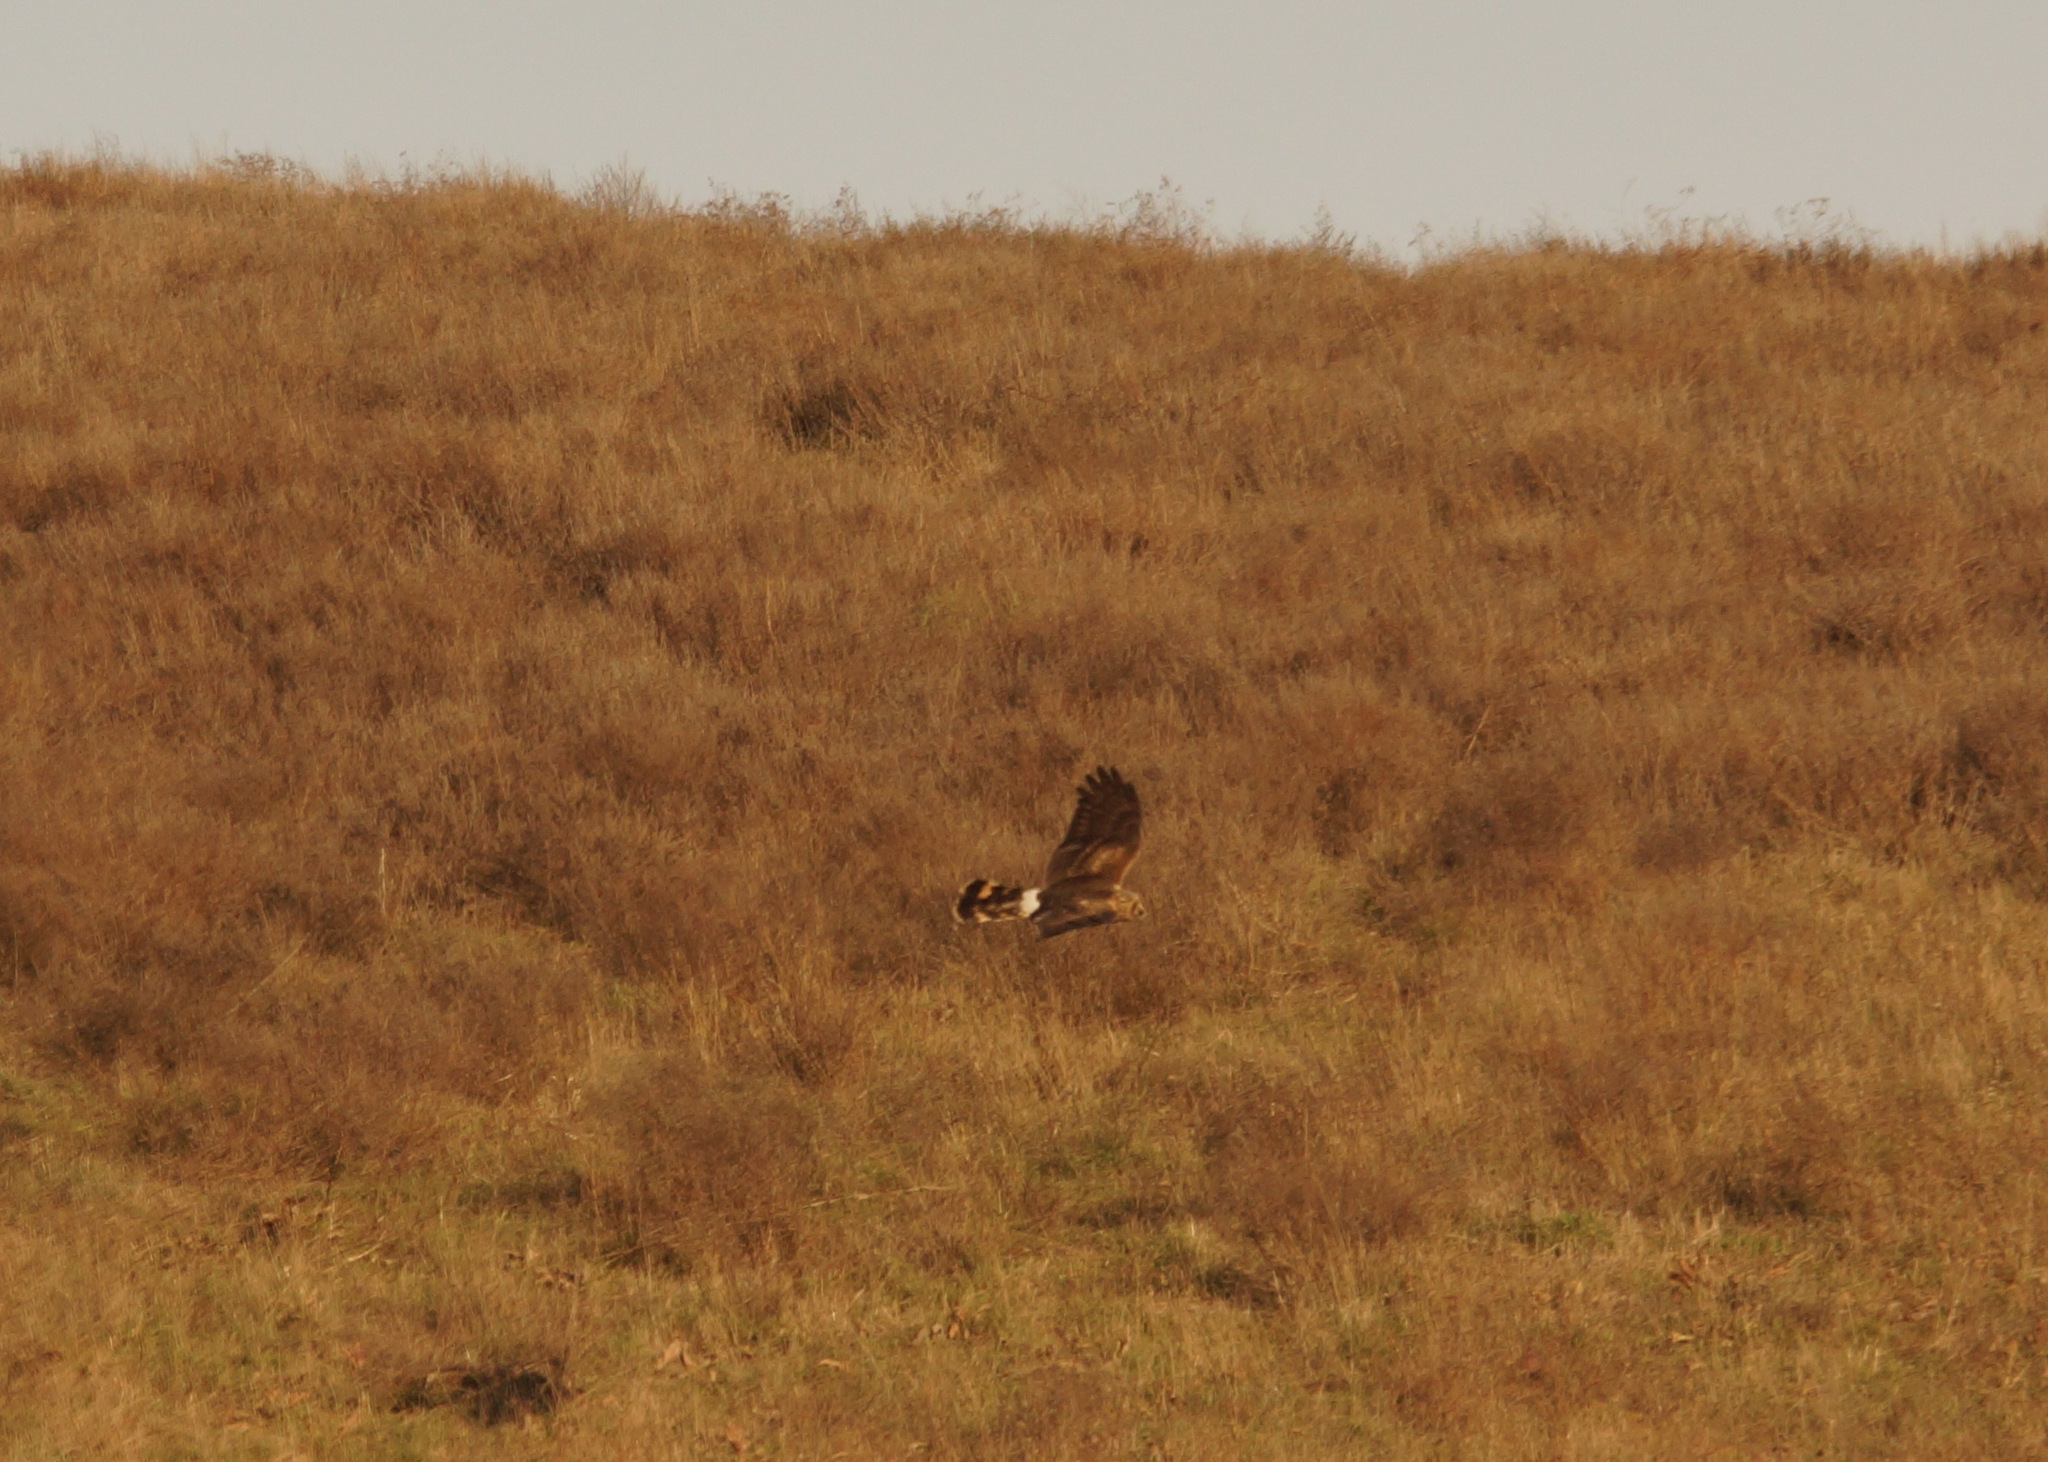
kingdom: Animalia
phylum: Chordata
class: Aves
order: Accipitriformes
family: Accipitridae
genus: Circus
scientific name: Circus cyaneus
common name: Hen harrier
